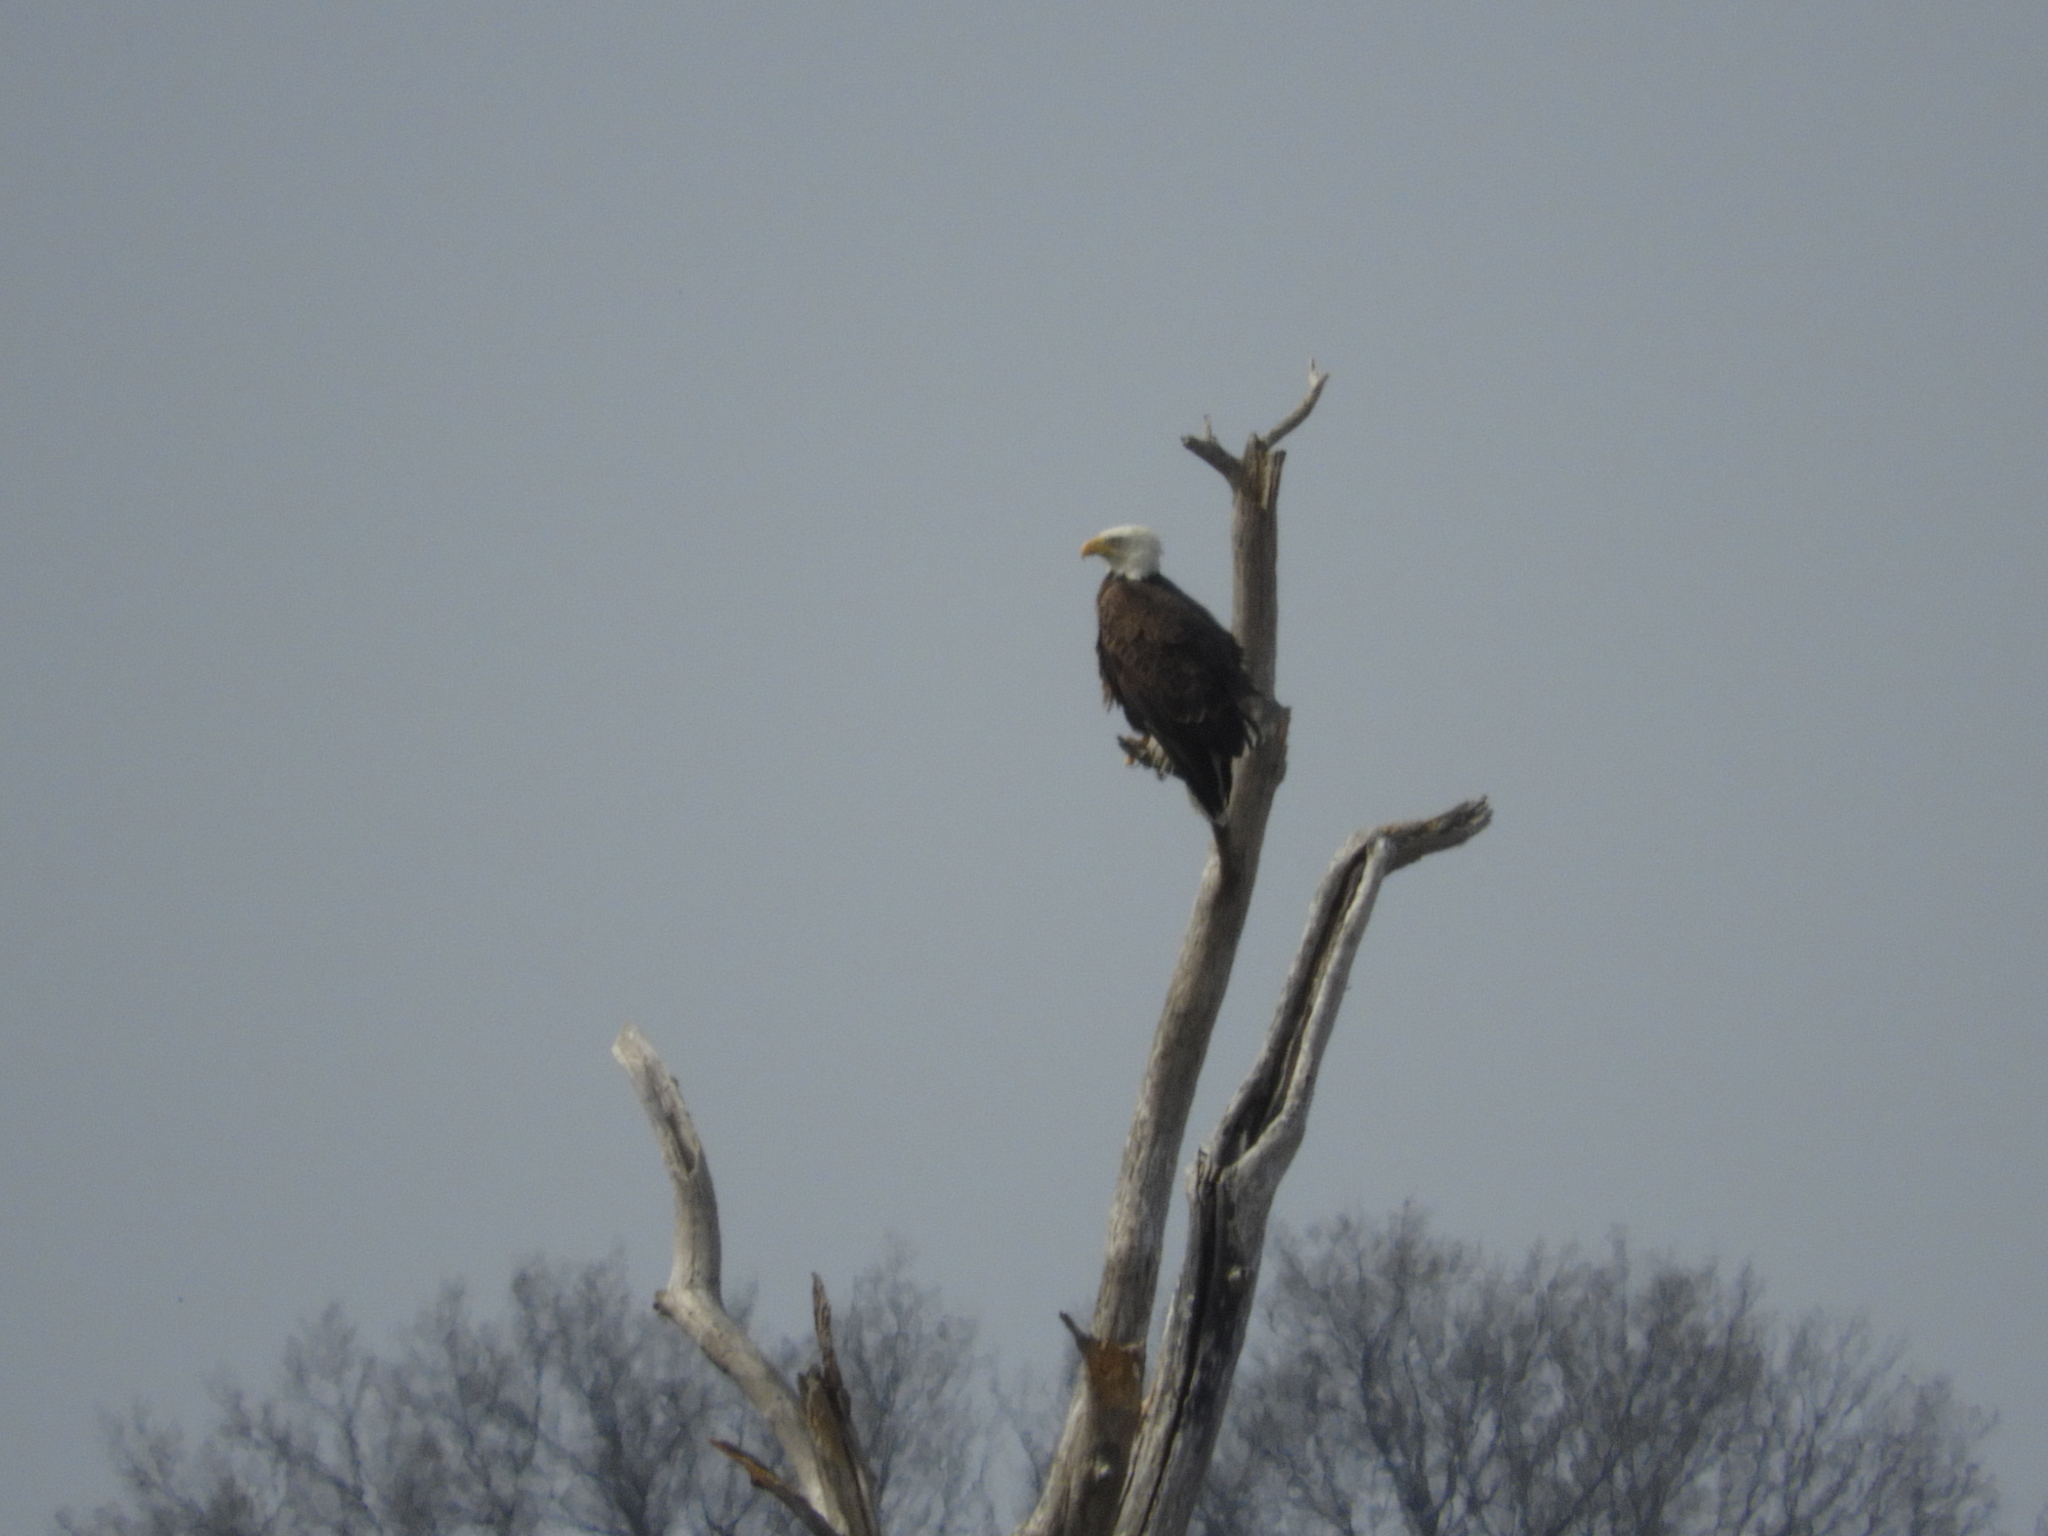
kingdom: Animalia
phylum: Chordata
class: Aves
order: Accipitriformes
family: Accipitridae
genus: Haliaeetus
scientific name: Haliaeetus leucocephalus
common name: Bald eagle
